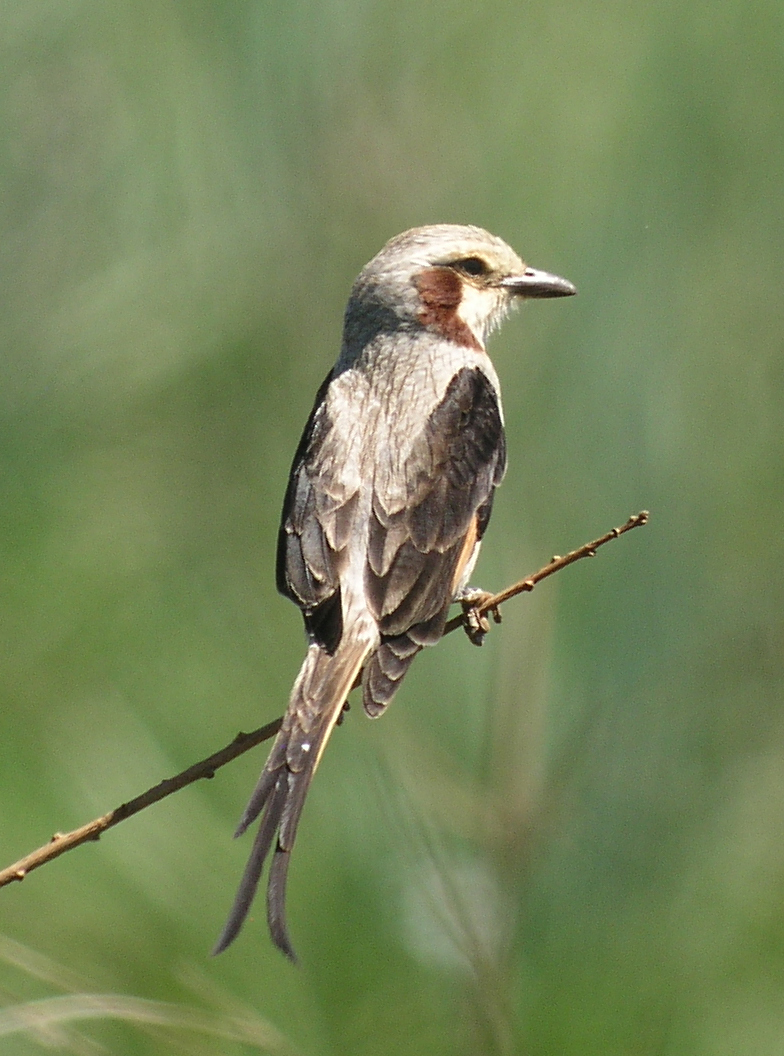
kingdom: Animalia
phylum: Chordata
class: Aves
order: Passeriformes
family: Tyrannidae
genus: Gubernetes
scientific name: Gubernetes yetapa
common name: Streamer-tailed tyrant
